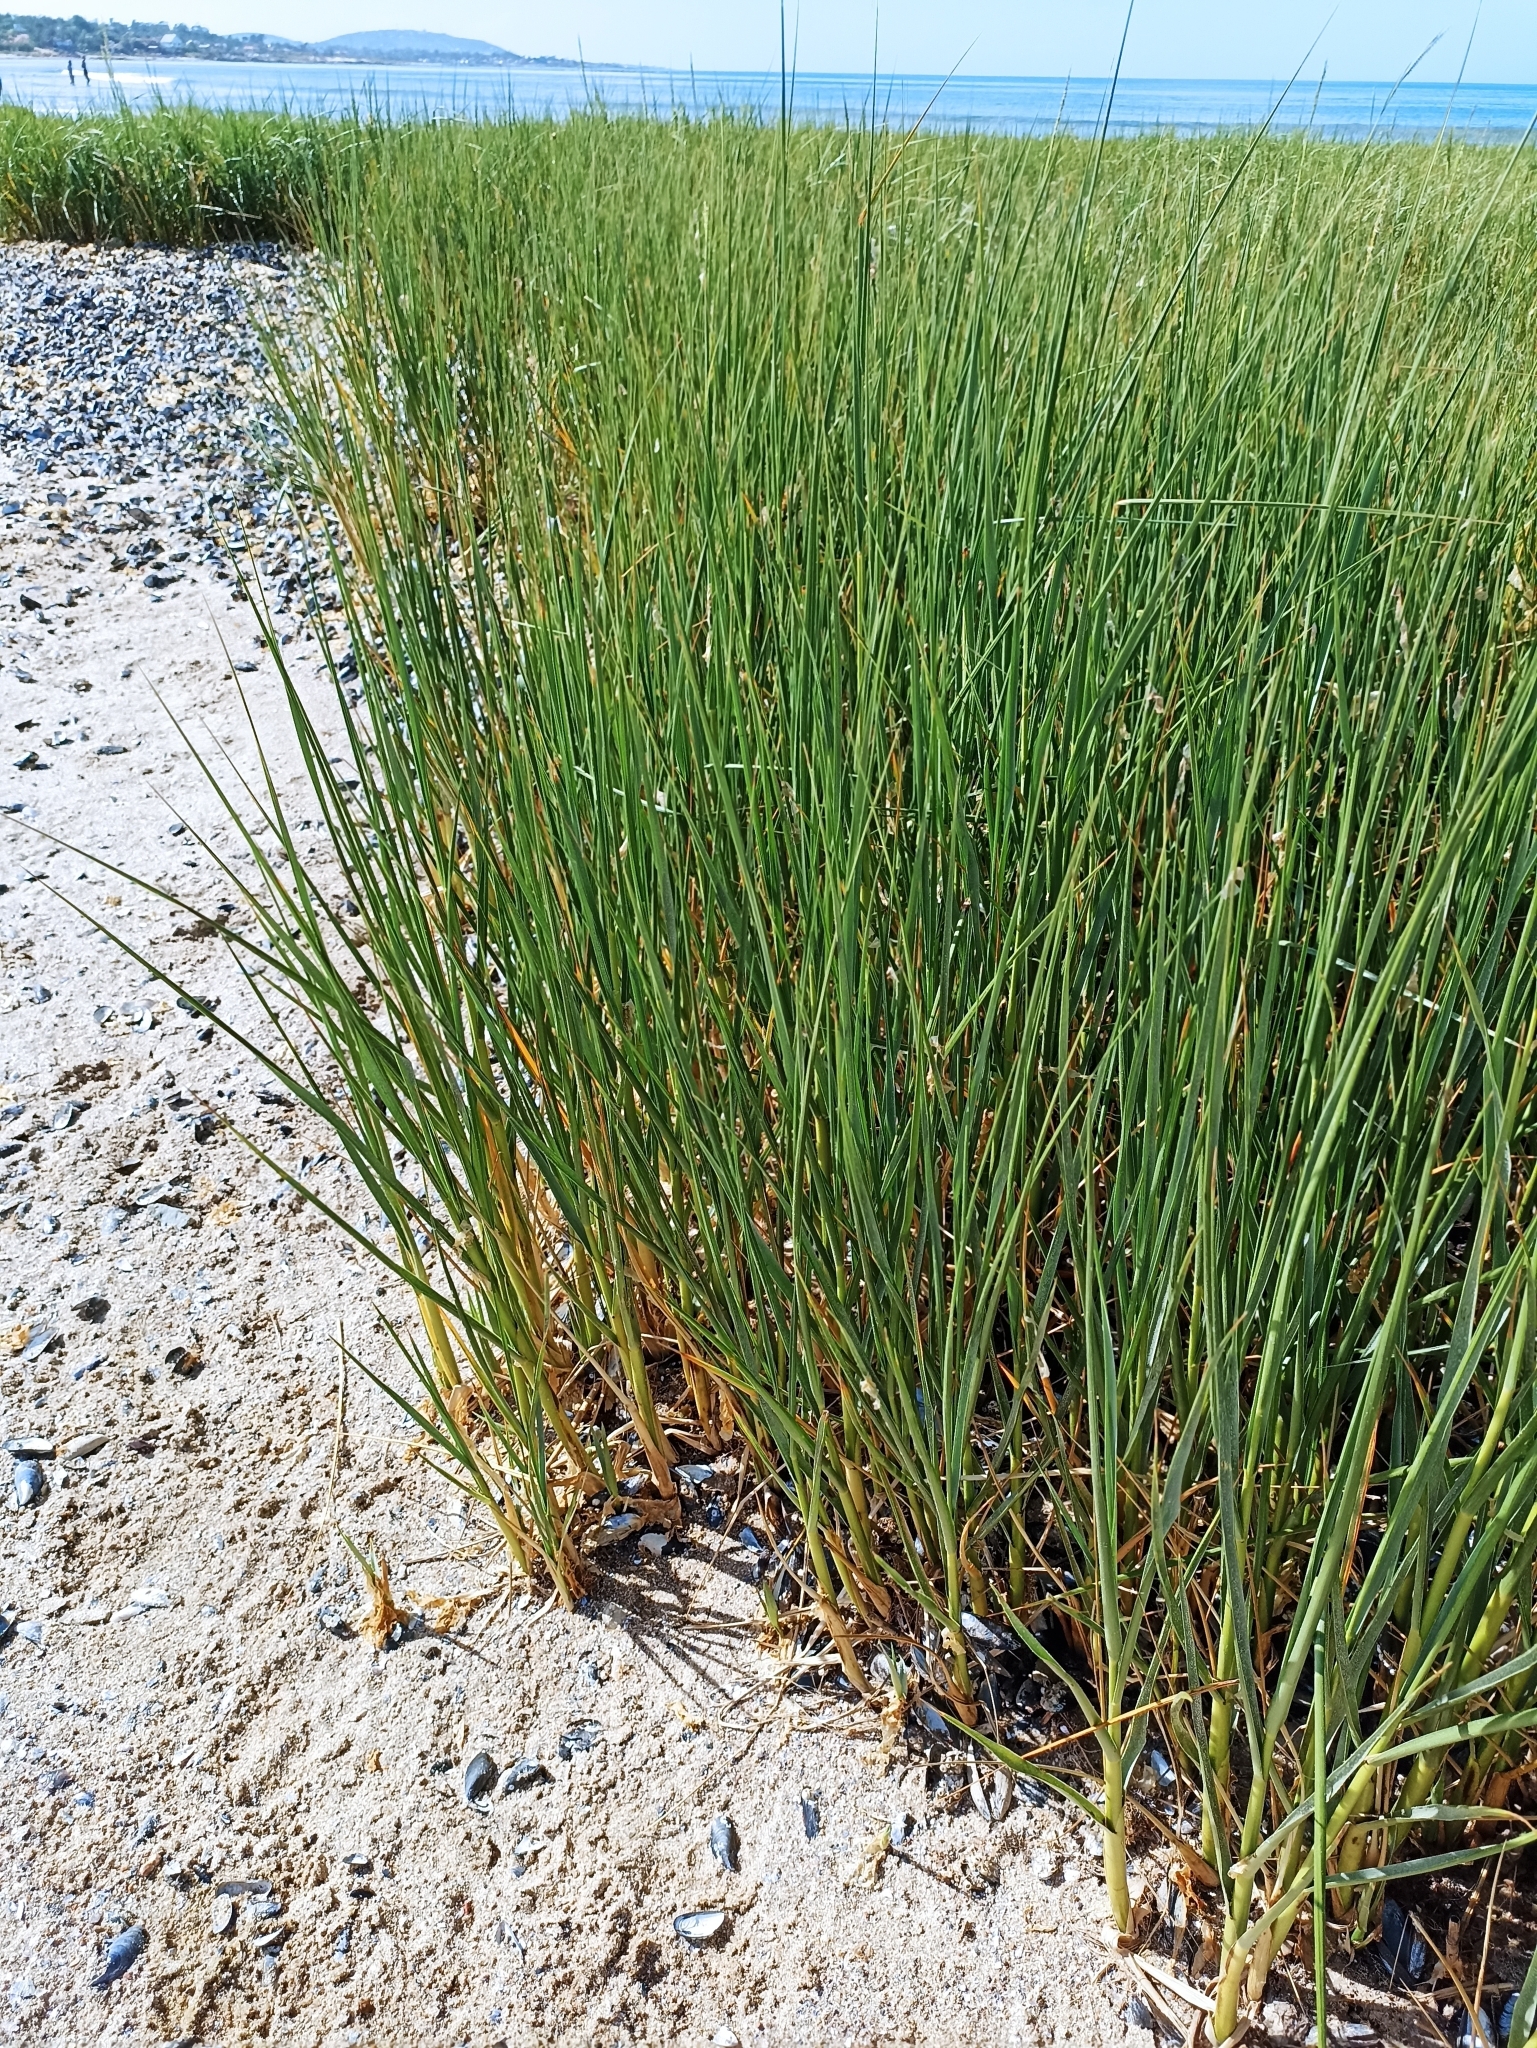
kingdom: Plantae
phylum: Tracheophyta
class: Liliopsida
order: Poales
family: Poaceae
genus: Sporobolus
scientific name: Sporobolus montevidensis
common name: Montevideo dropseed
